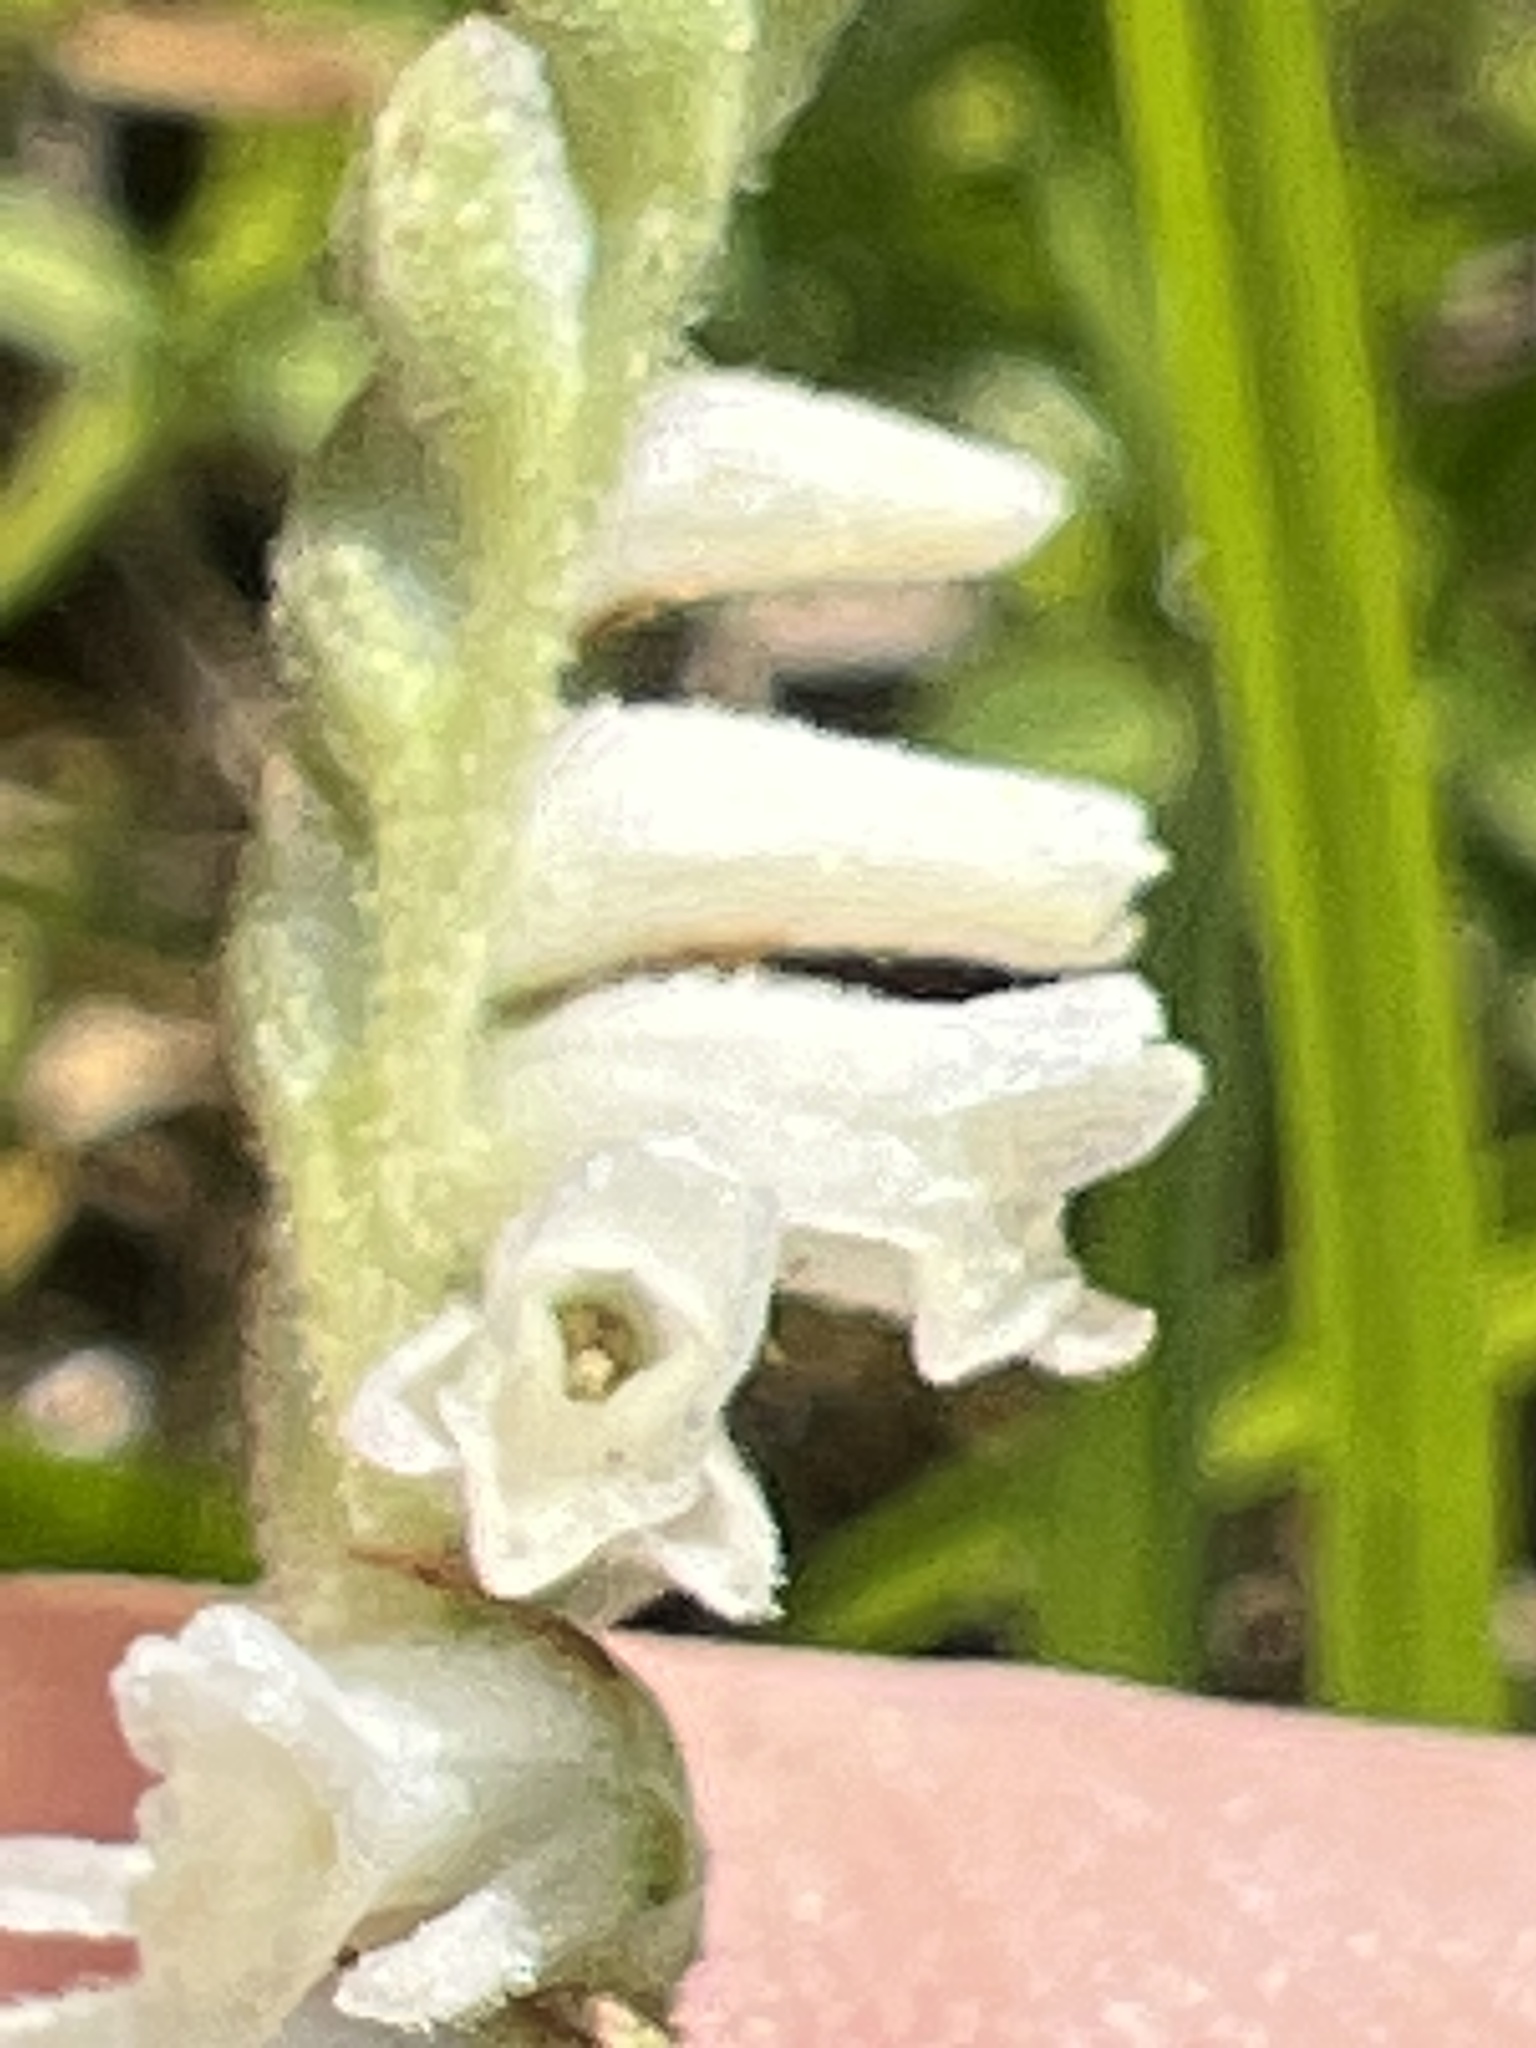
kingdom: Plantae
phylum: Tracheophyta
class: Liliopsida
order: Asparagales
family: Orchidaceae
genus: Spiranthes
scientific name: Spiranthes vernalis
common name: Spring ladies'-tresses
